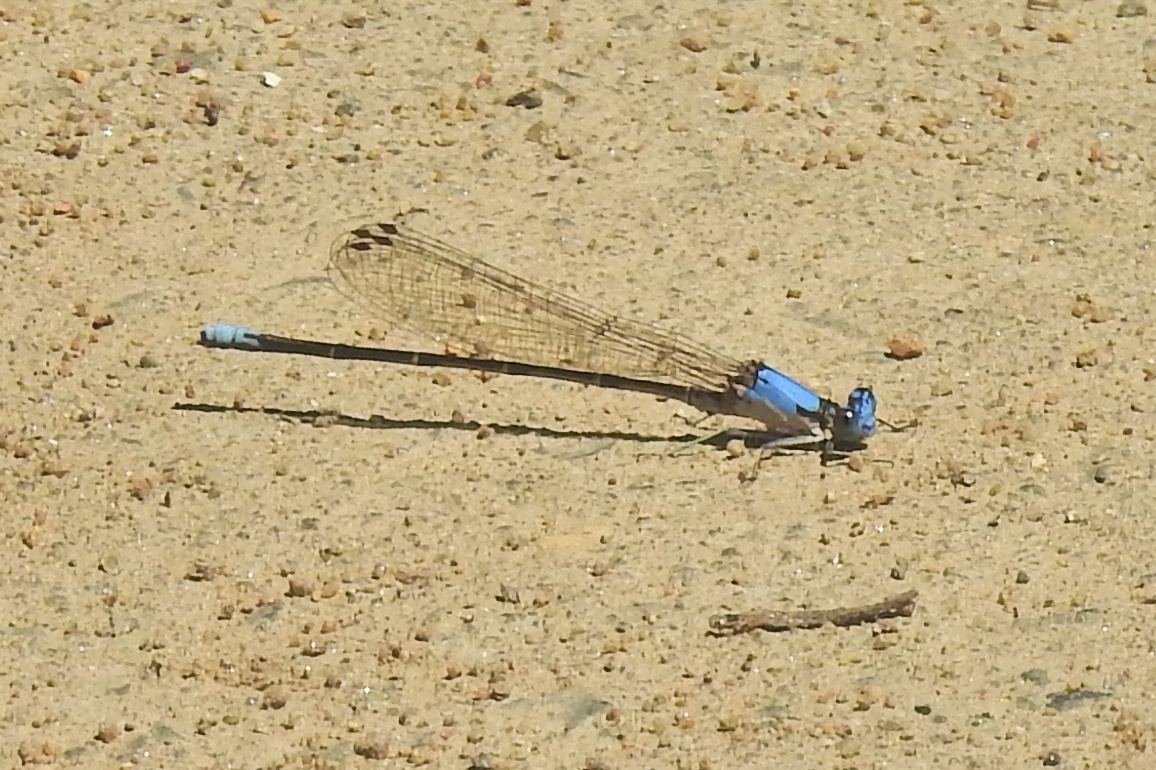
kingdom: Animalia
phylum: Arthropoda
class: Insecta
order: Odonata
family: Coenagrionidae
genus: Argia
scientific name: Argia apicalis
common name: Blue-fronted dancer
